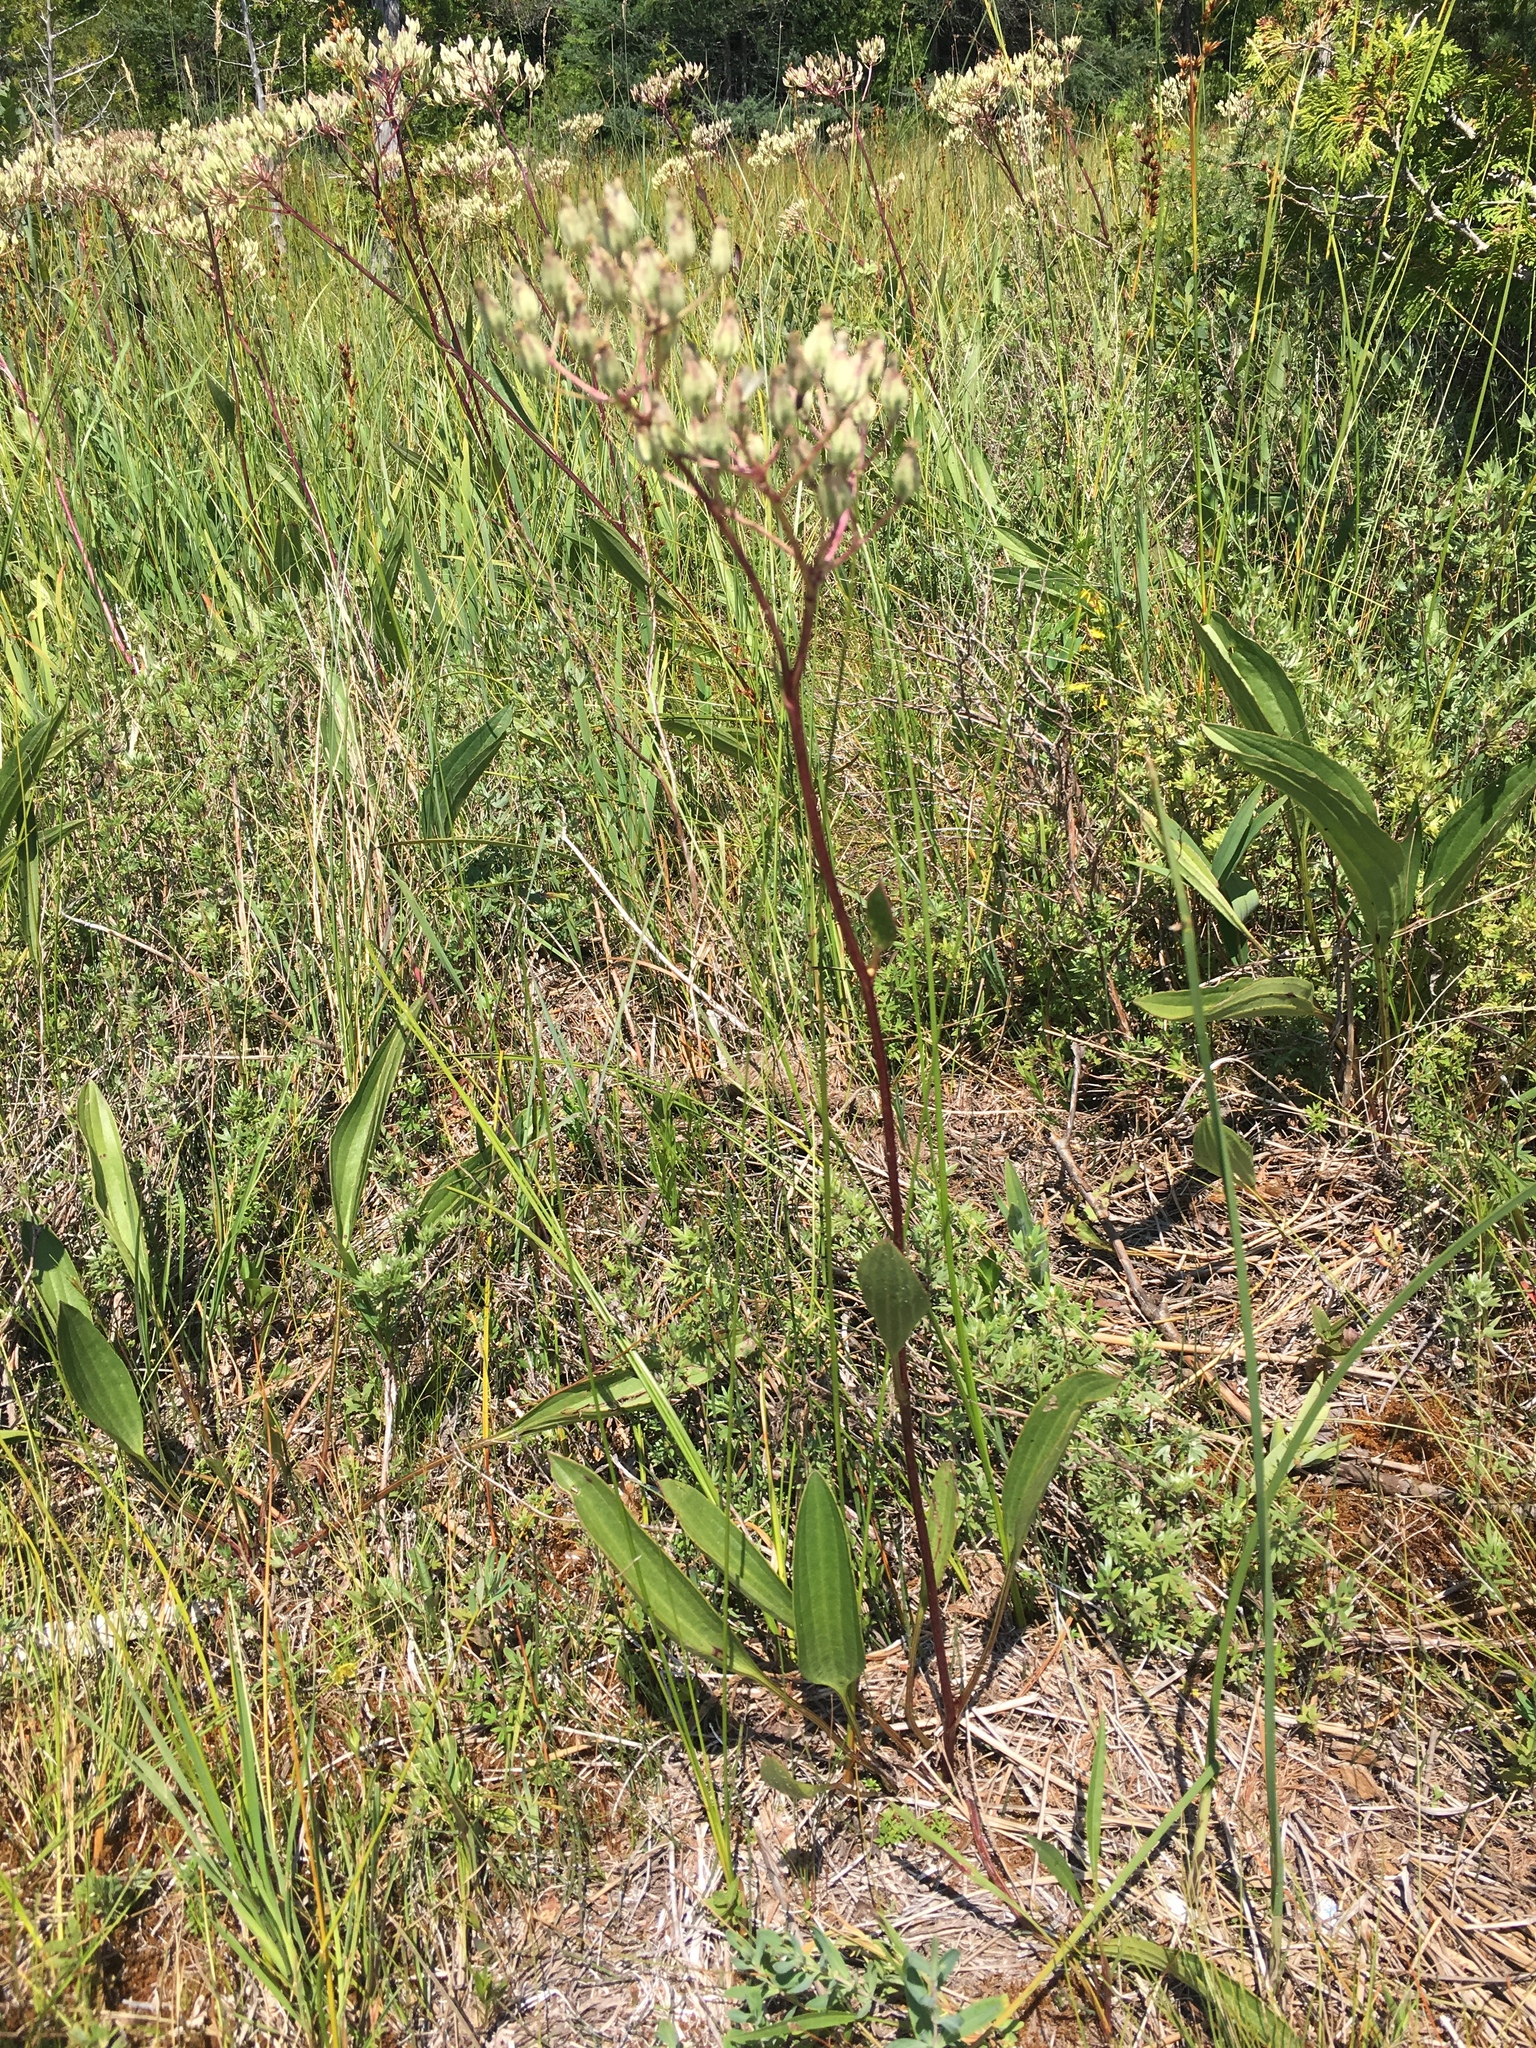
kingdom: Plantae
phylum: Tracheophyta
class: Magnoliopsida
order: Asterales
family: Asteraceae
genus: Arnoglossum
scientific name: Arnoglossum plantagineum
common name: Groove-stemmed indian-plantain
